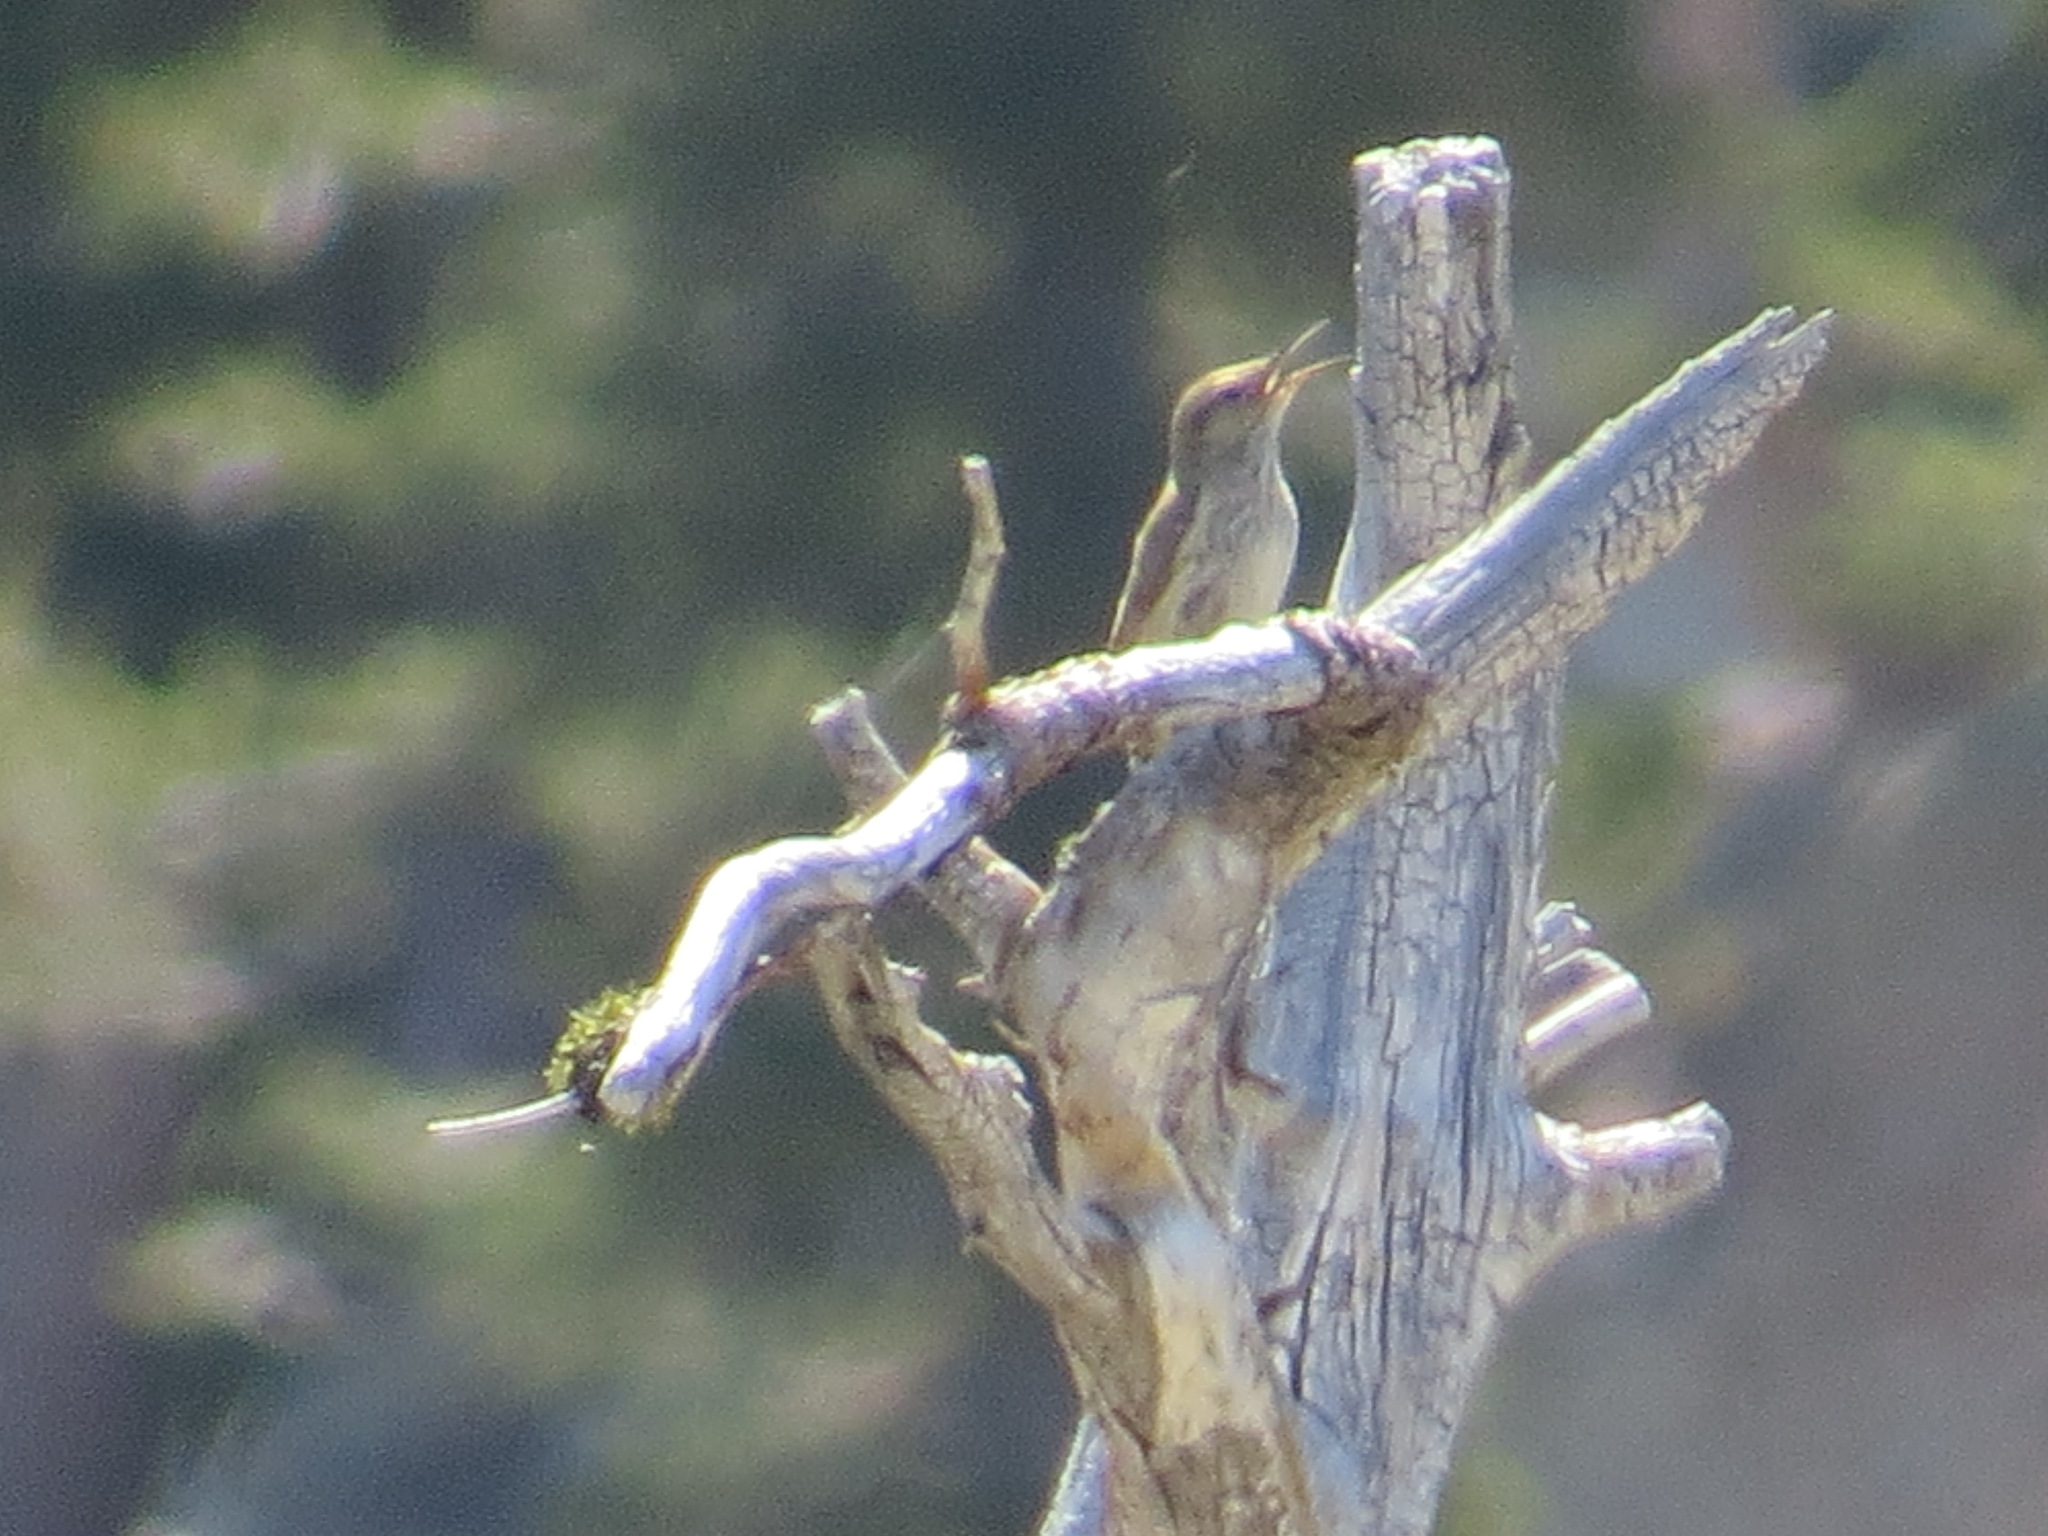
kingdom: Animalia
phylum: Chordata
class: Aves
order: Passeriformes
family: Troglodytidae
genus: Salpinctes
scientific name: Salpinctes obsoletus
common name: Rock wren
